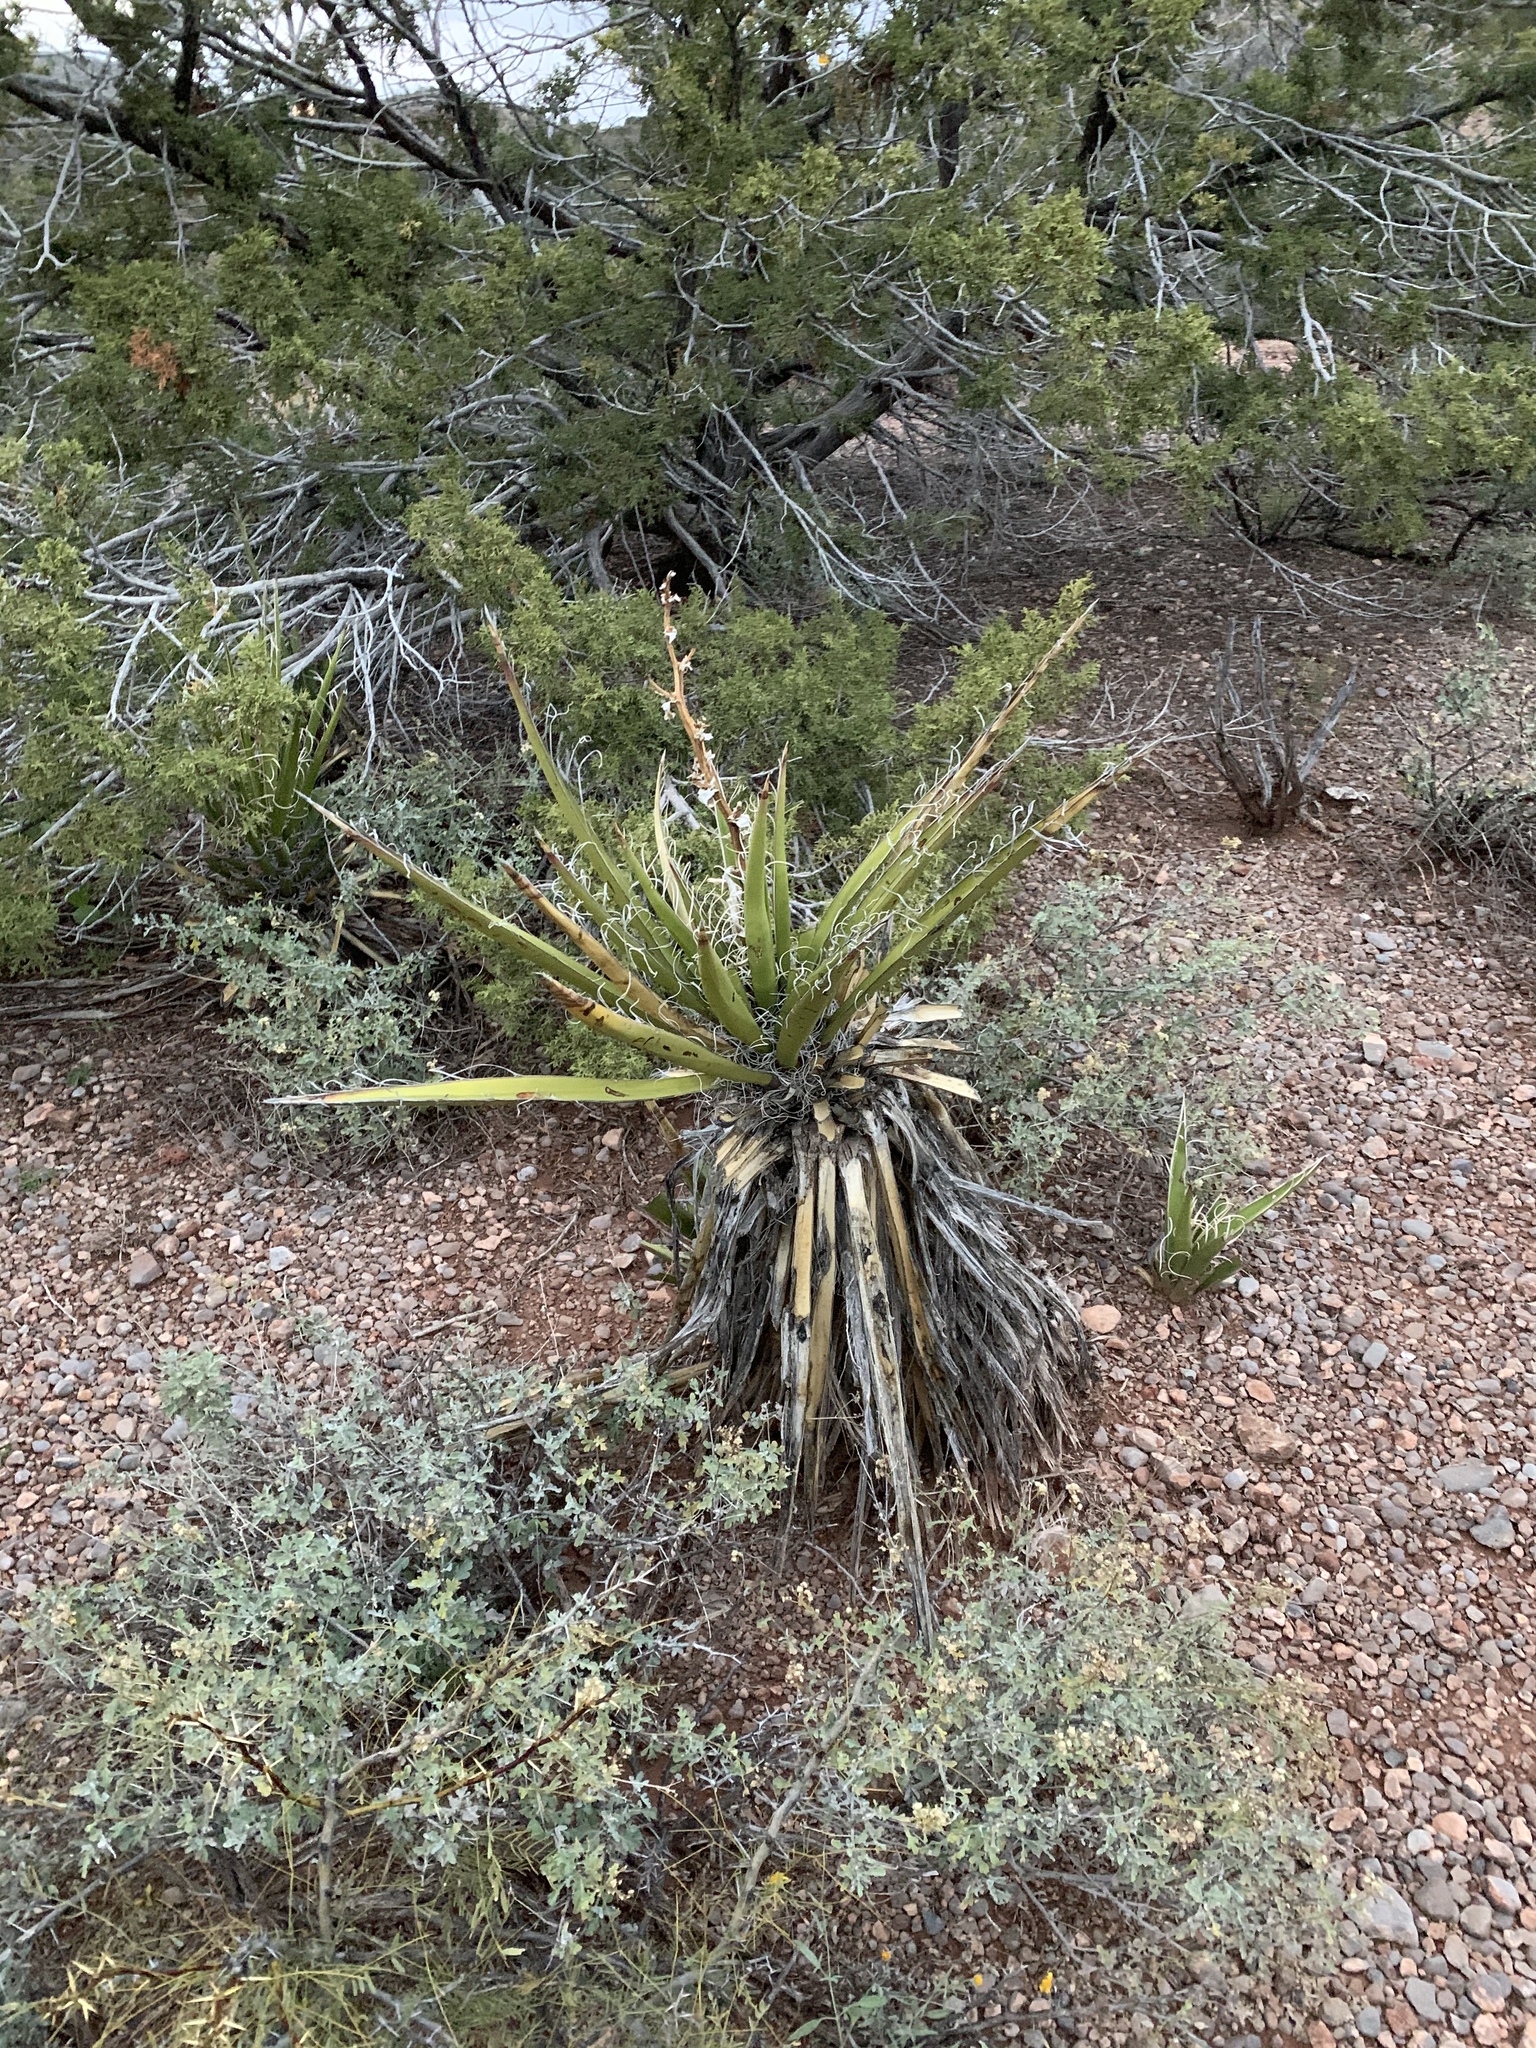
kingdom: Plantae
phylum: Tracheophyta
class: Liliopsida
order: Asparagales
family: Asparagaceae
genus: Yucca
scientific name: Yucca treculiana
